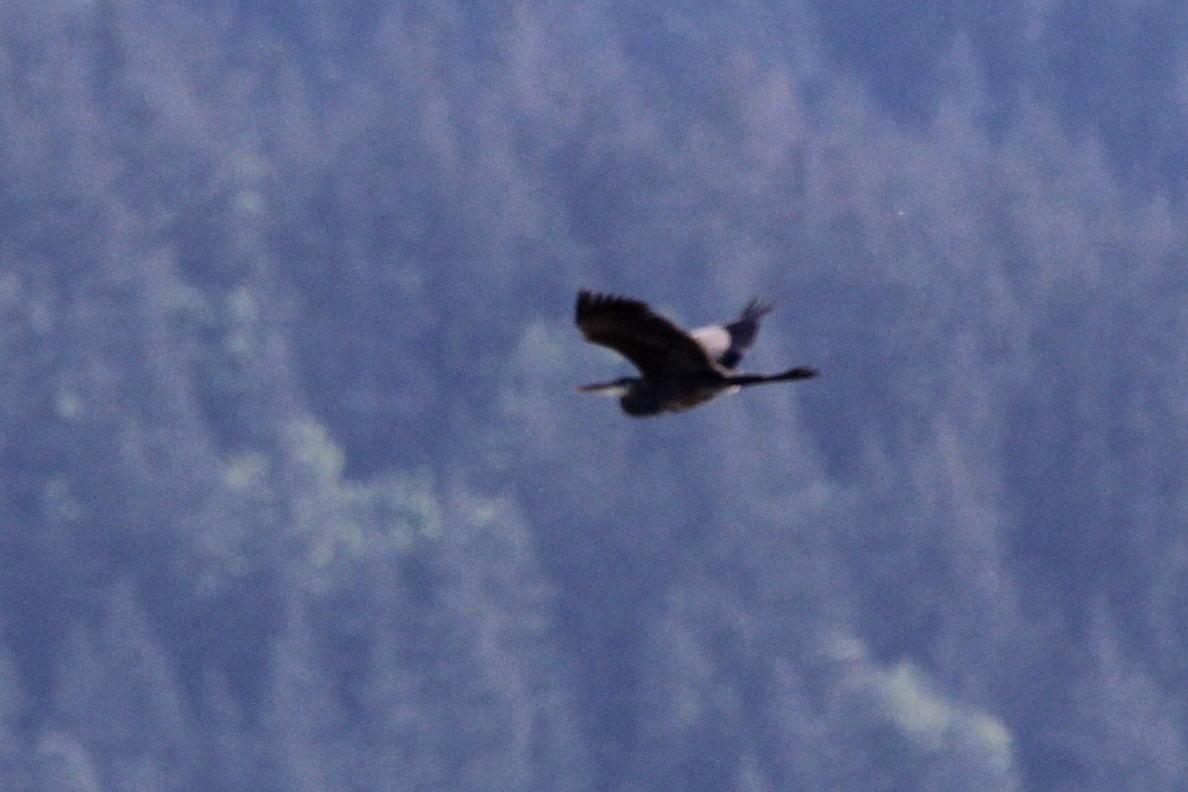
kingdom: Animalia
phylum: Chordata
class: Aves
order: Pelecaniformes
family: Ardeidae
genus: Ardea
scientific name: Ardea herodias
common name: Great blue heron
